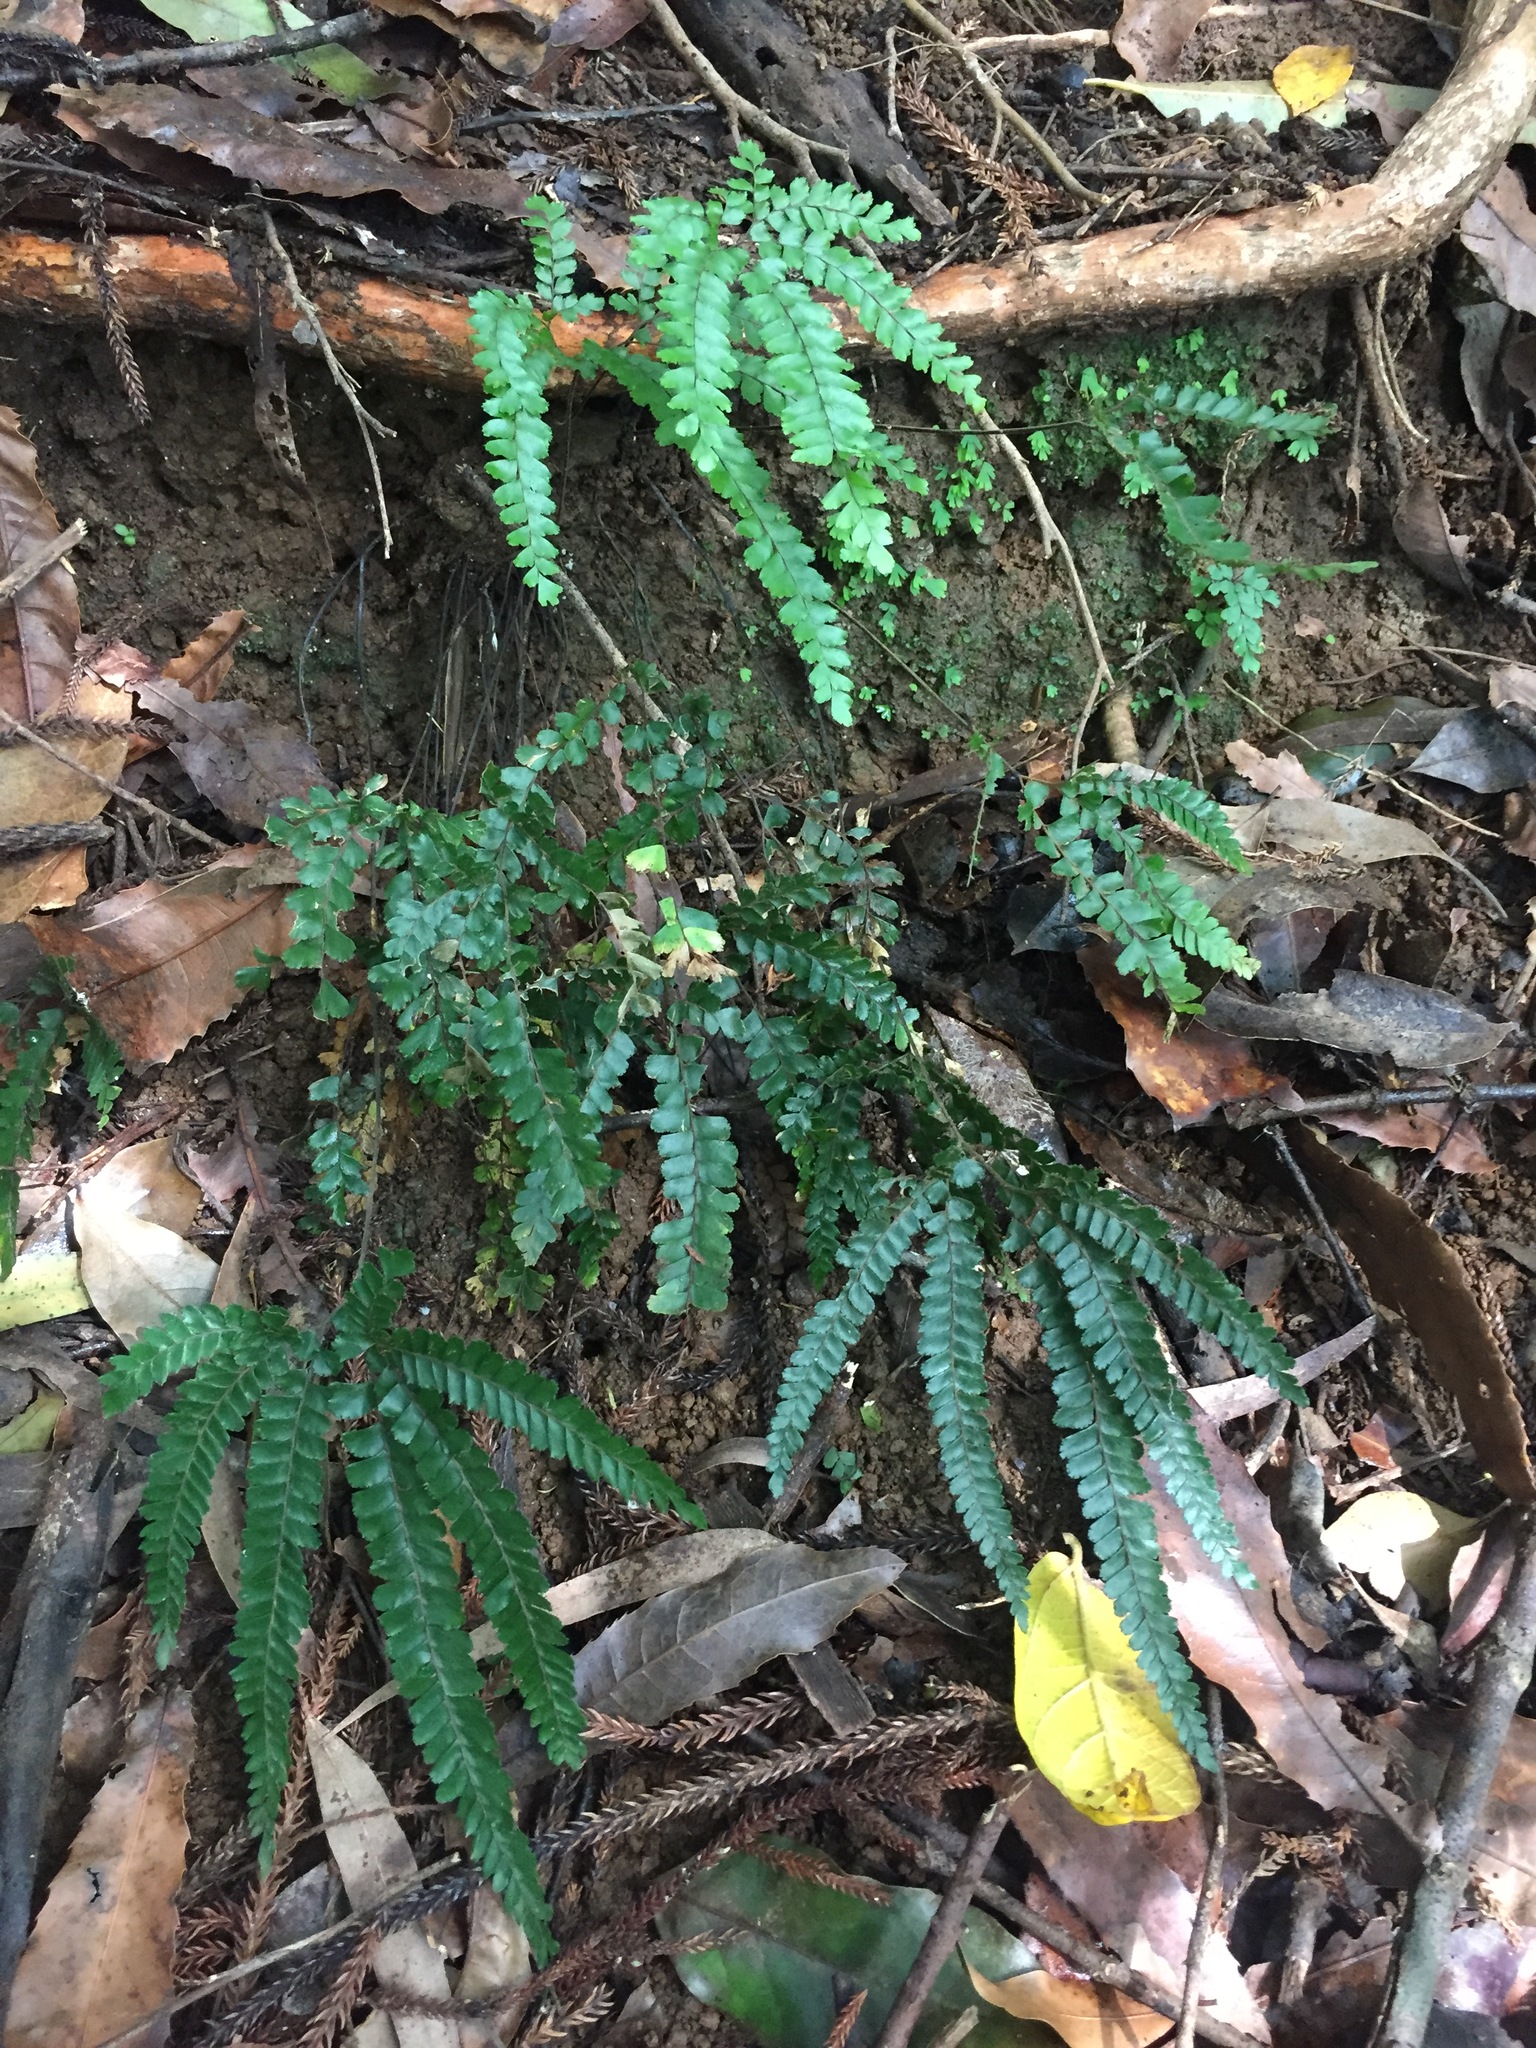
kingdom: Plantae
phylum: Tracheophyta
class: Polypodiopsida
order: Polypodiales
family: Pteridaceae
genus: Adiantum
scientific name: Adiantum hispidulum
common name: Rough maidenhair
